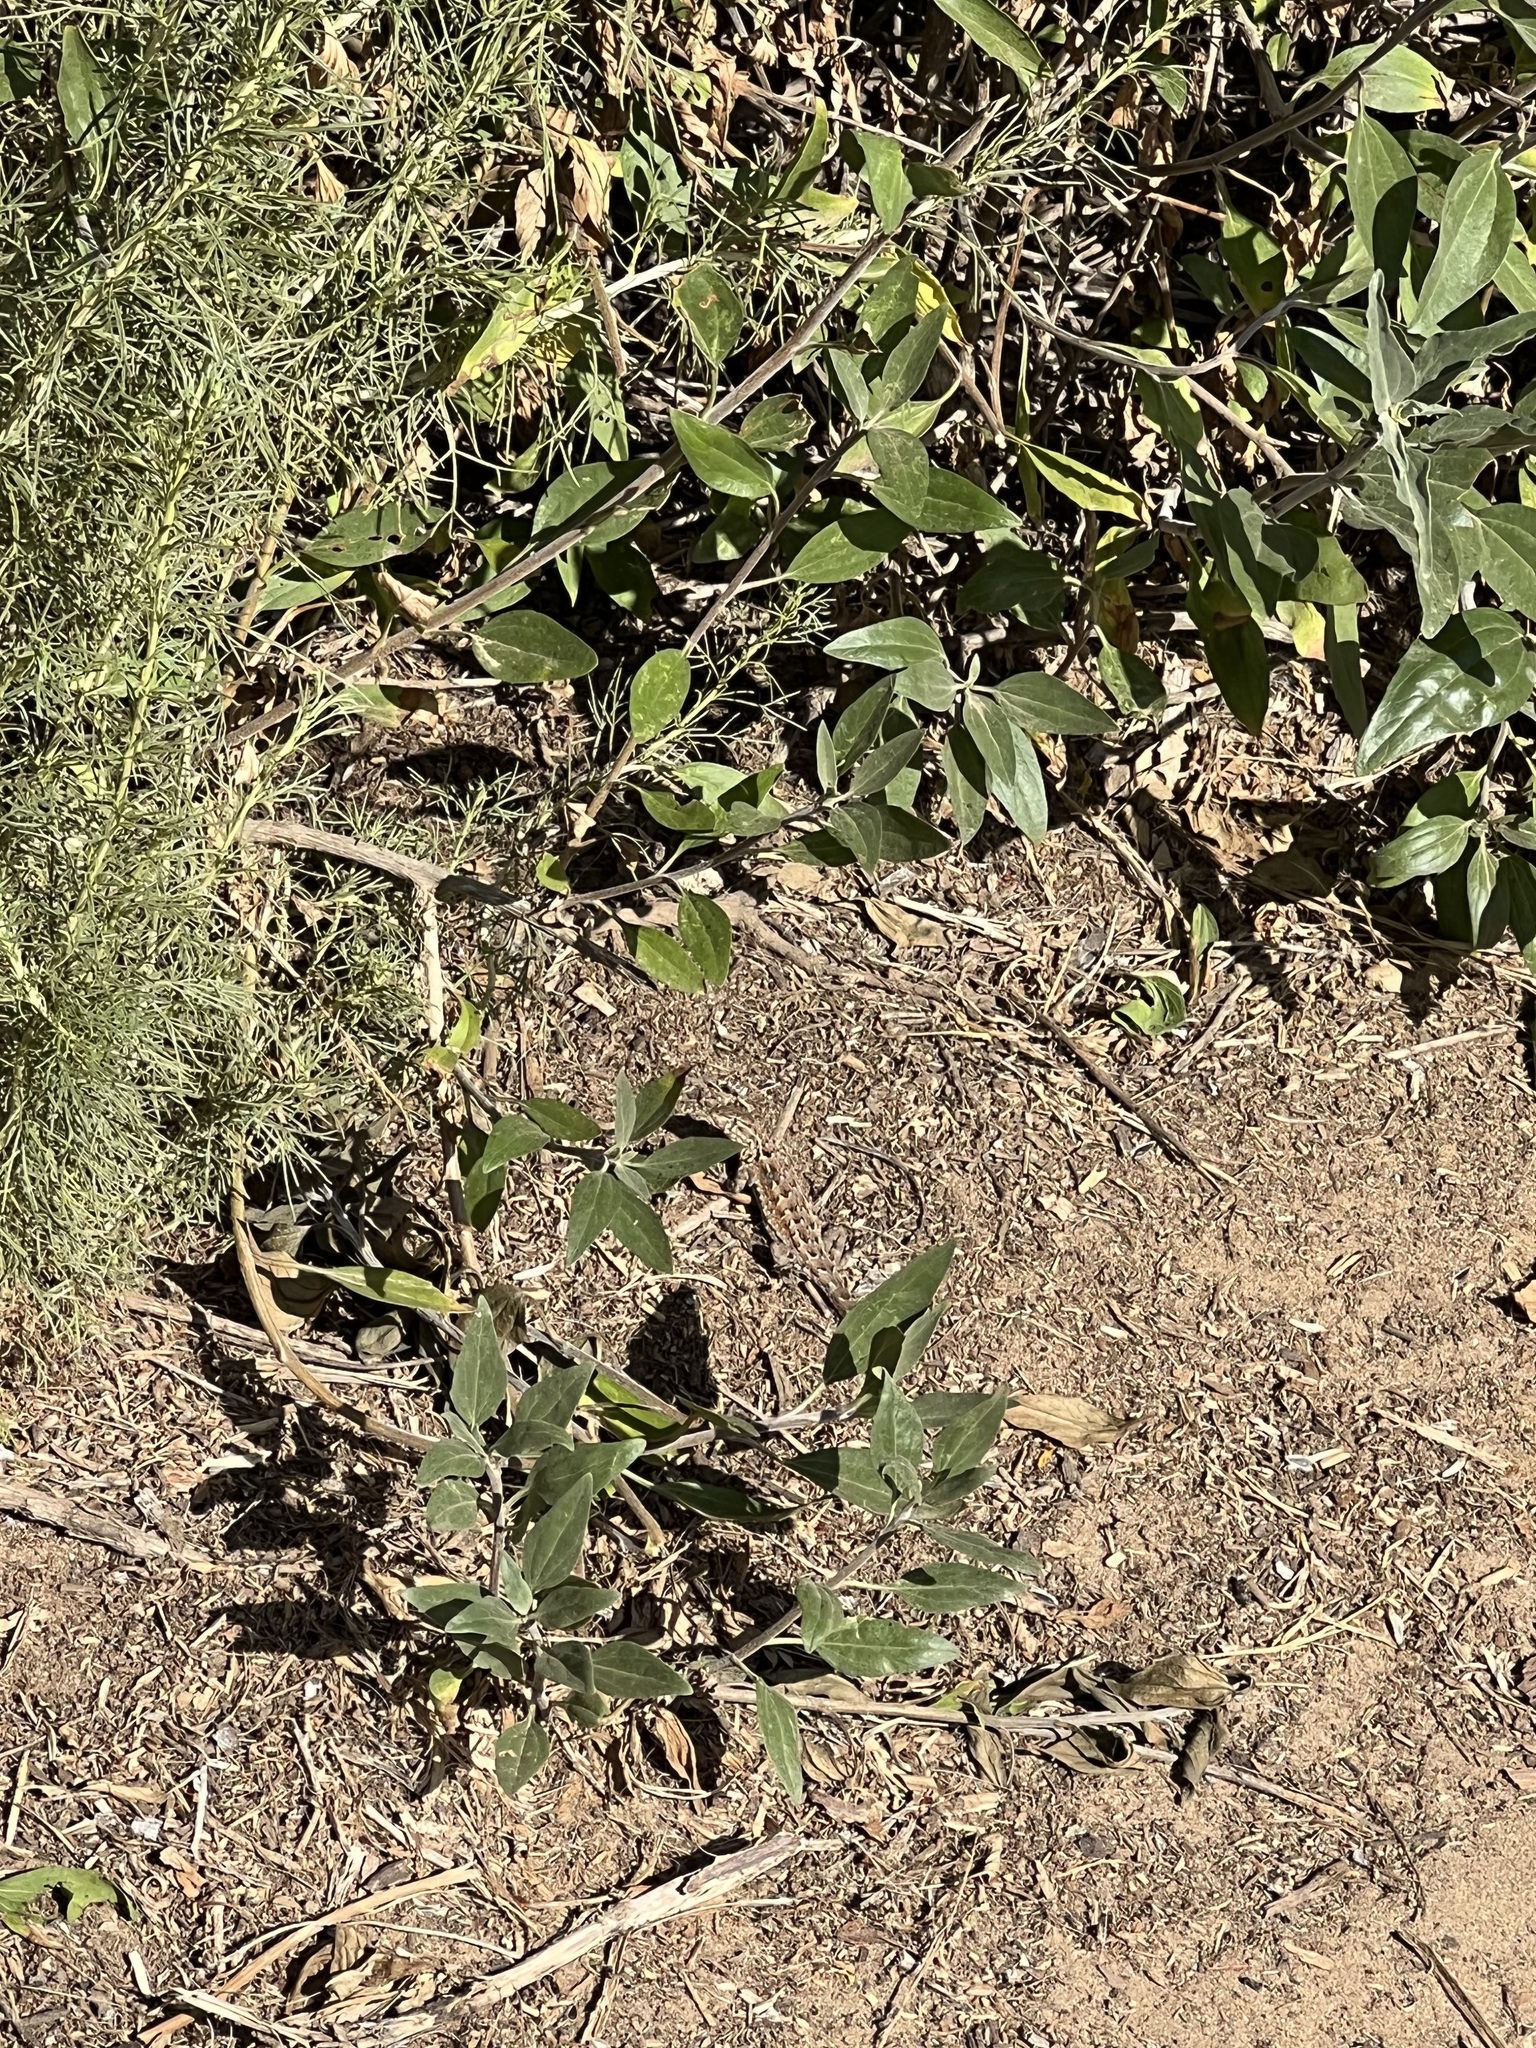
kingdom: Animalia
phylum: Chordata
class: Squamata
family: Phrynosomatidae
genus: Uta
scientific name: Uta stansburiana
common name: Side-blotched lizard
